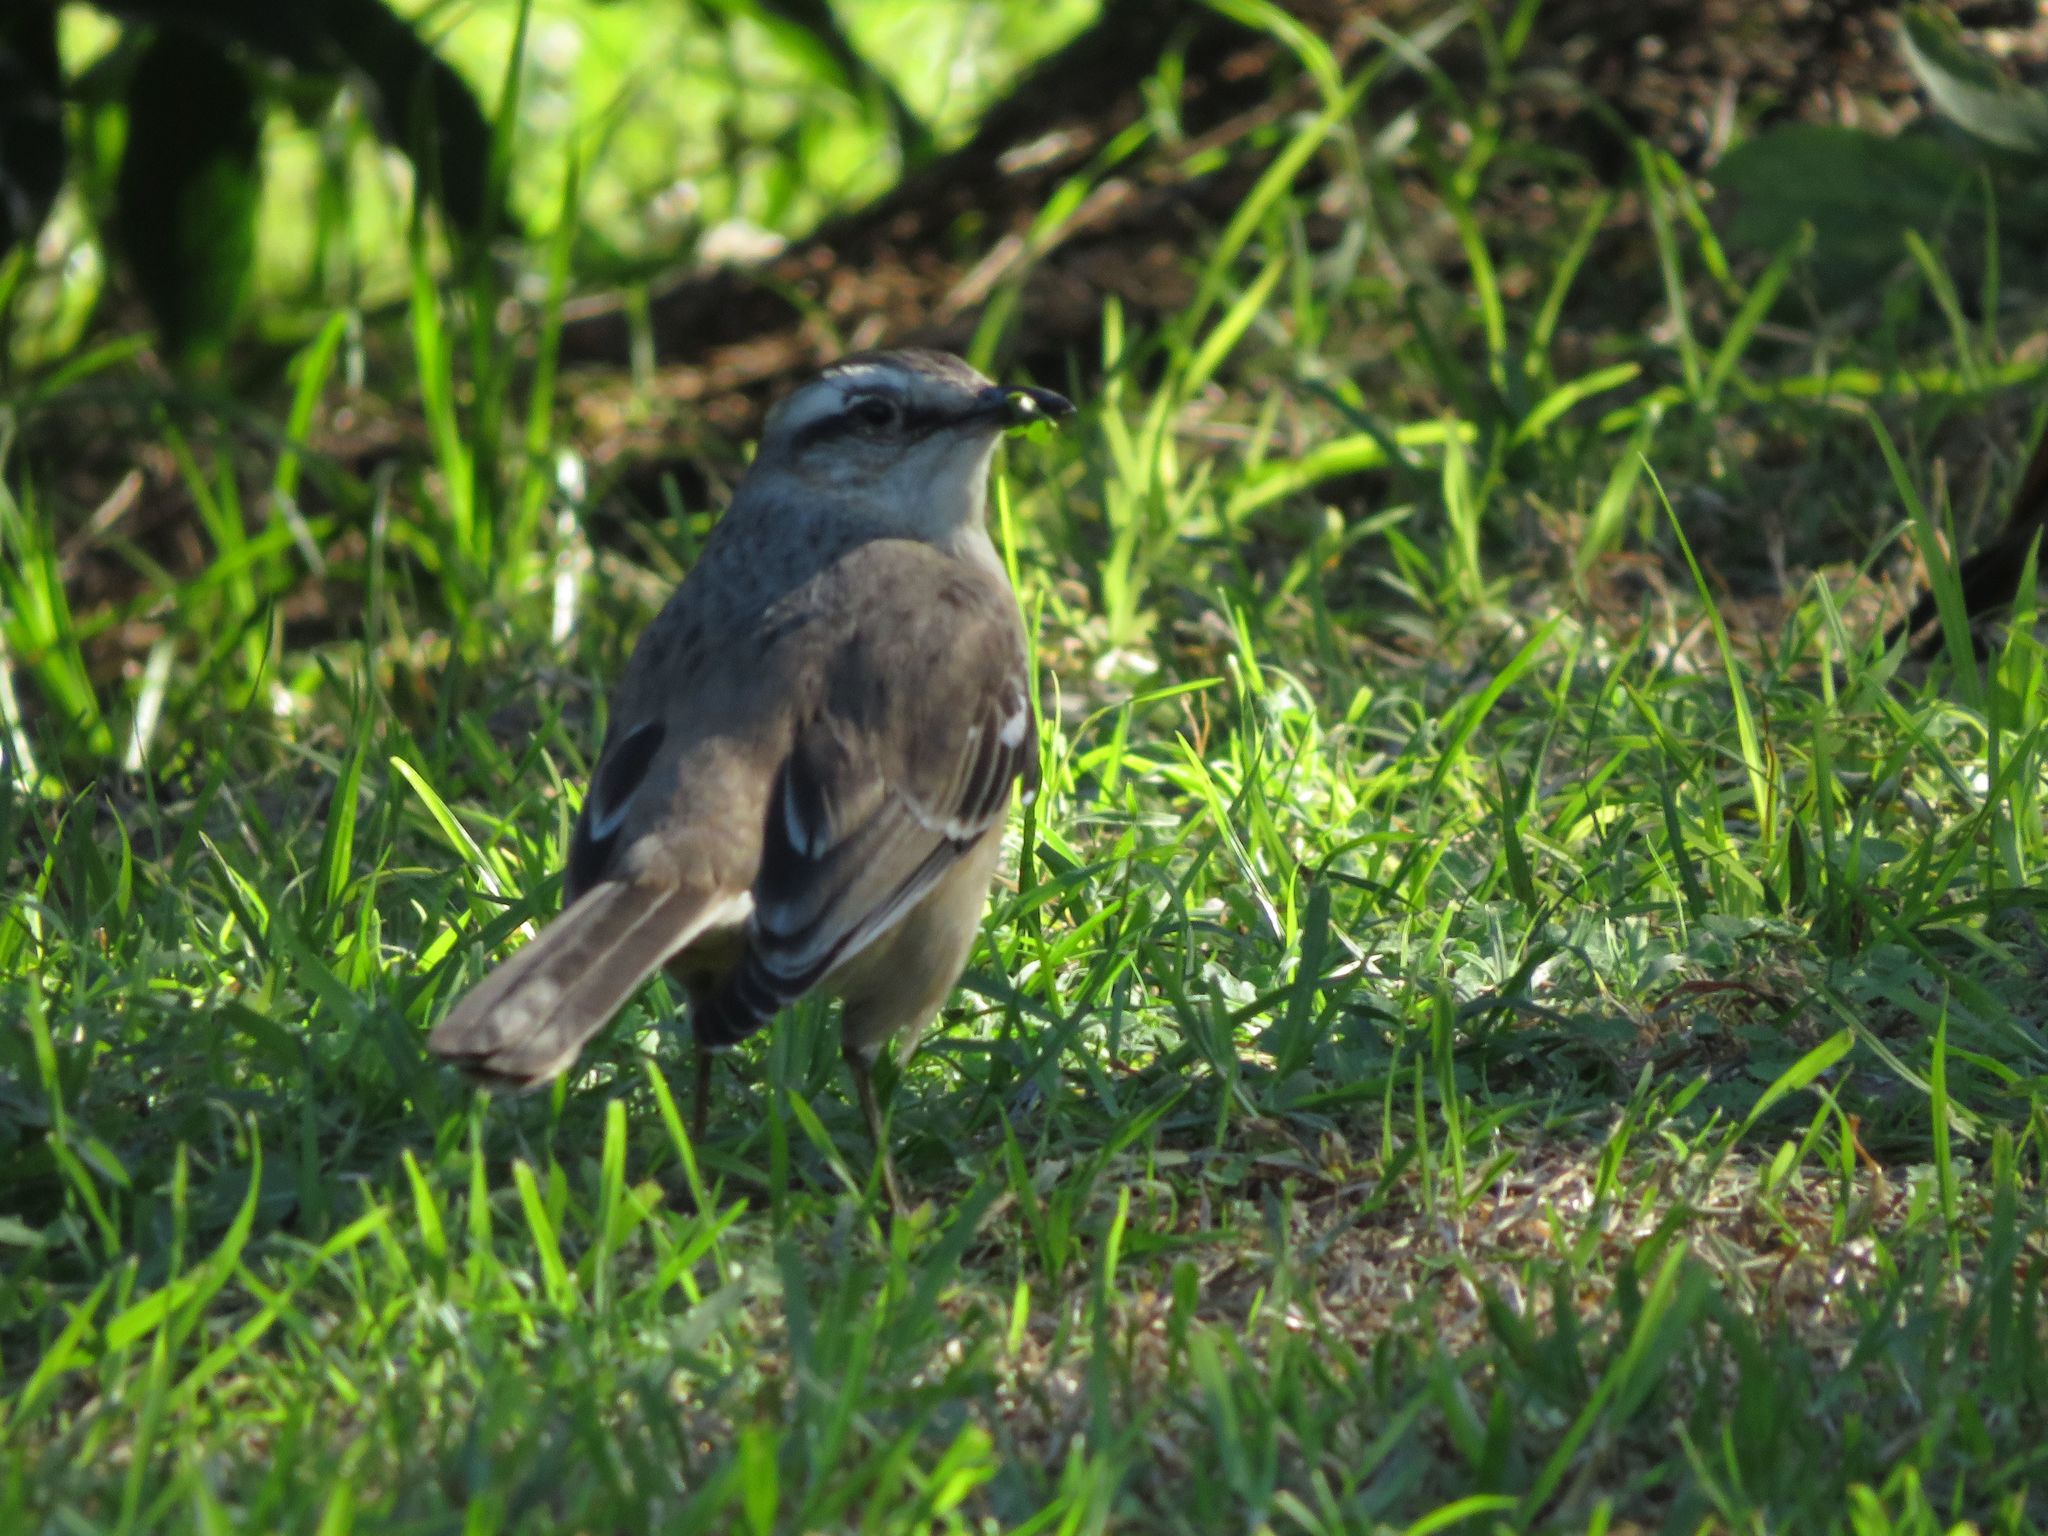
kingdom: Animalia
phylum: Chordata
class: Aves
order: Passeriformes
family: Mimidae
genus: Mimus
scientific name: Mimus saturninus
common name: Chalk-browed mockingbird
